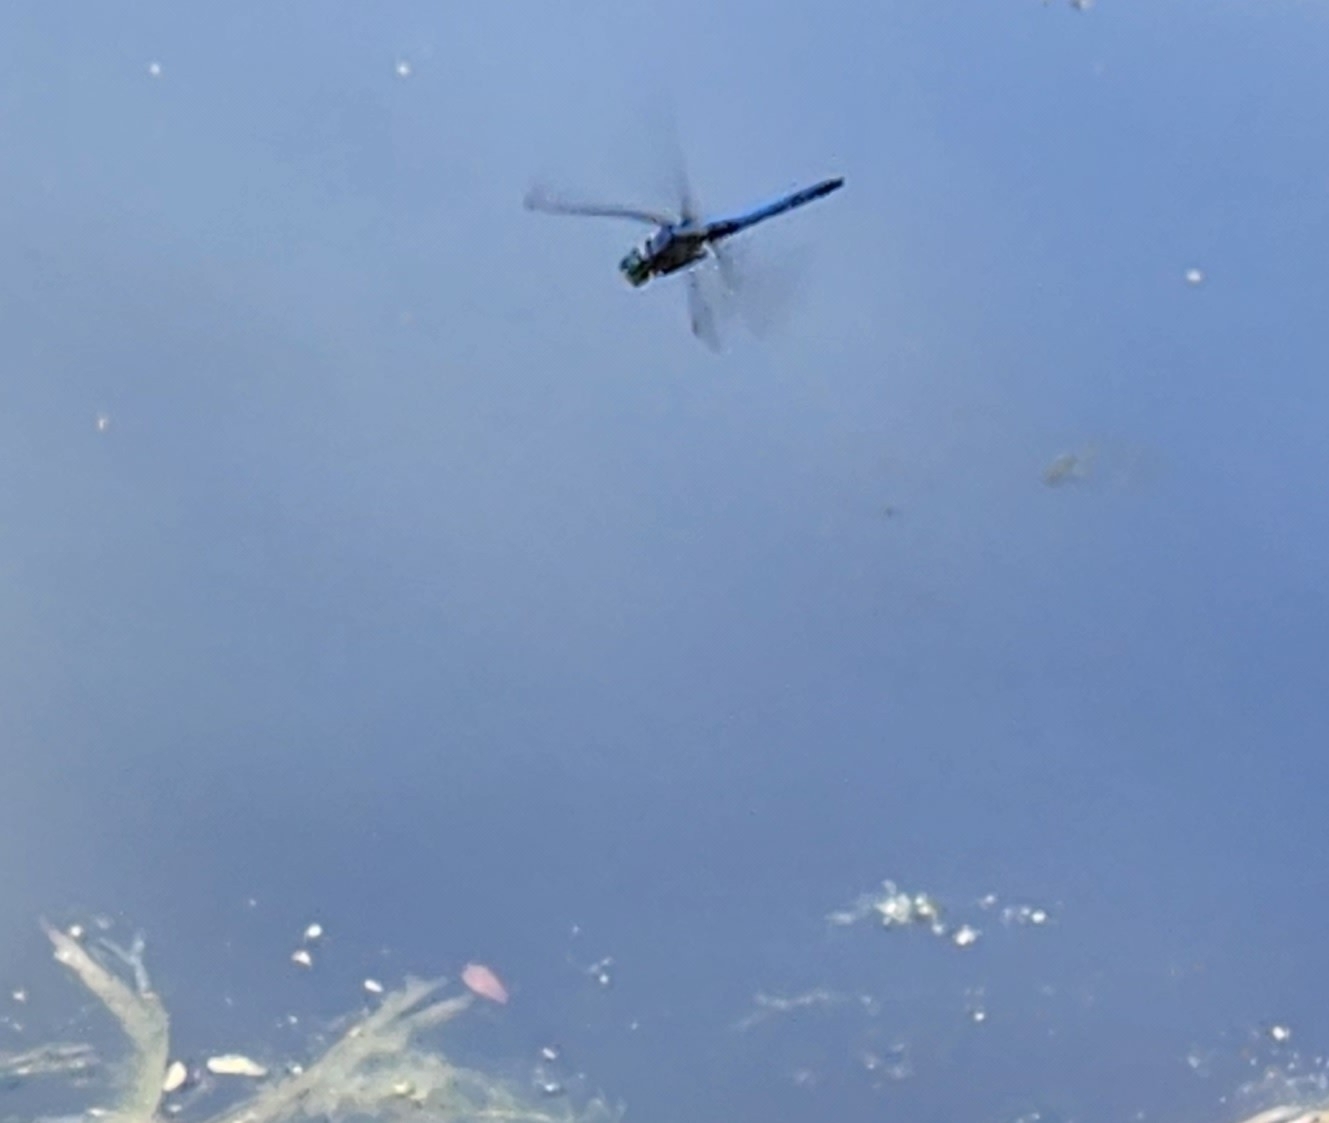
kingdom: Animalia
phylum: Arthropoda
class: Insecta
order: Odonata
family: Libellulidae
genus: Pachydiplax
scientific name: Pachydiplax longipennis
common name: Blue dasher
